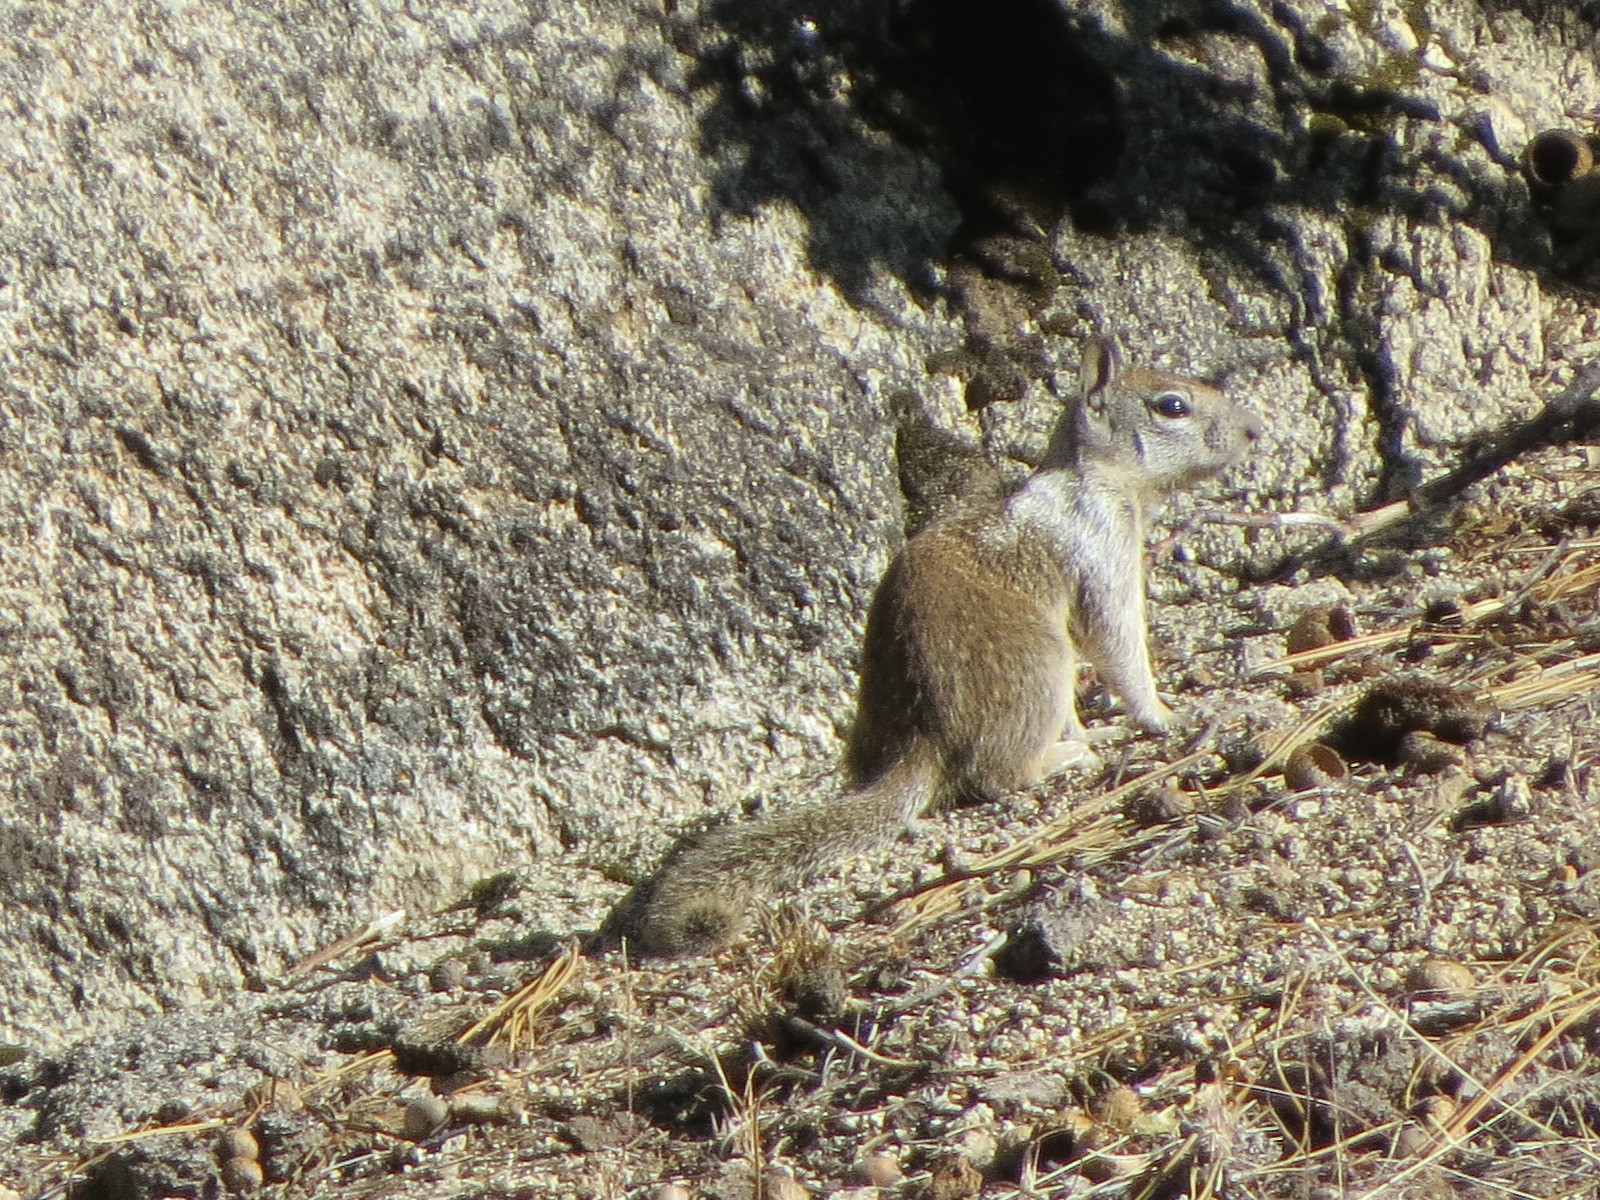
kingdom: Animalia
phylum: Chordata
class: Mammalia
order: Rodentia
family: Sciuridae
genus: Otospermophilus
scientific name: Otospermophilus beecheyi
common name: California ground squirrel
